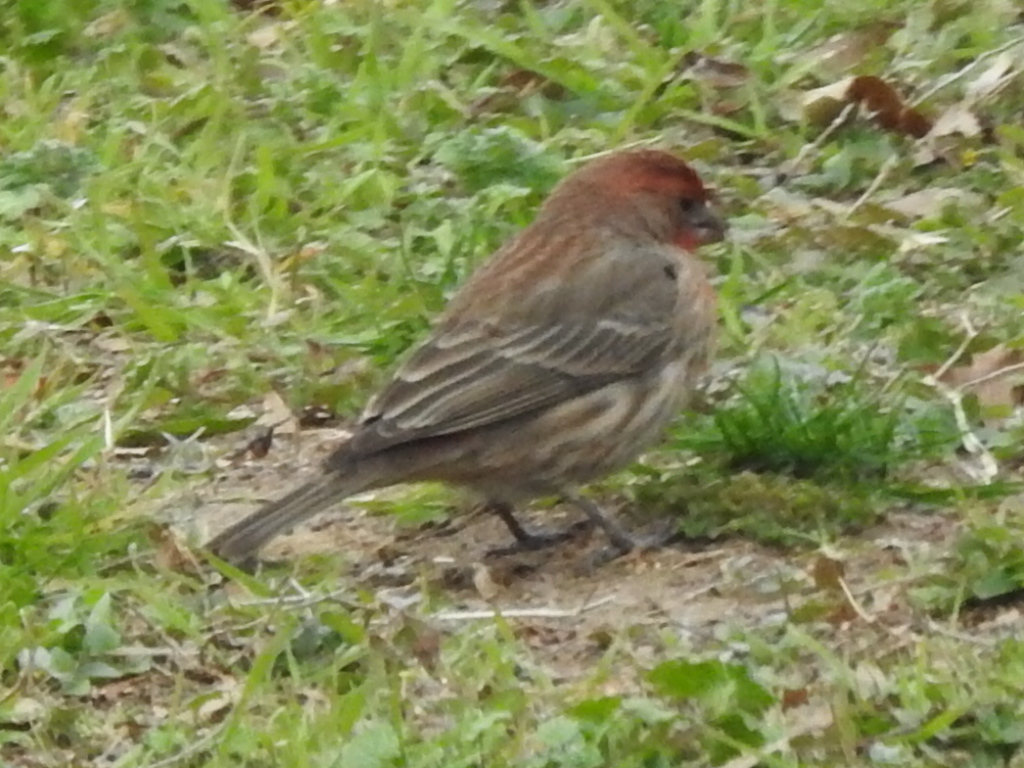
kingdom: Animalia
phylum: Chordata
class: Aves
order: Passeriformes
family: Fringillidae
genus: Haemorhous
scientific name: Haemorhous mexicanus
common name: House finch
